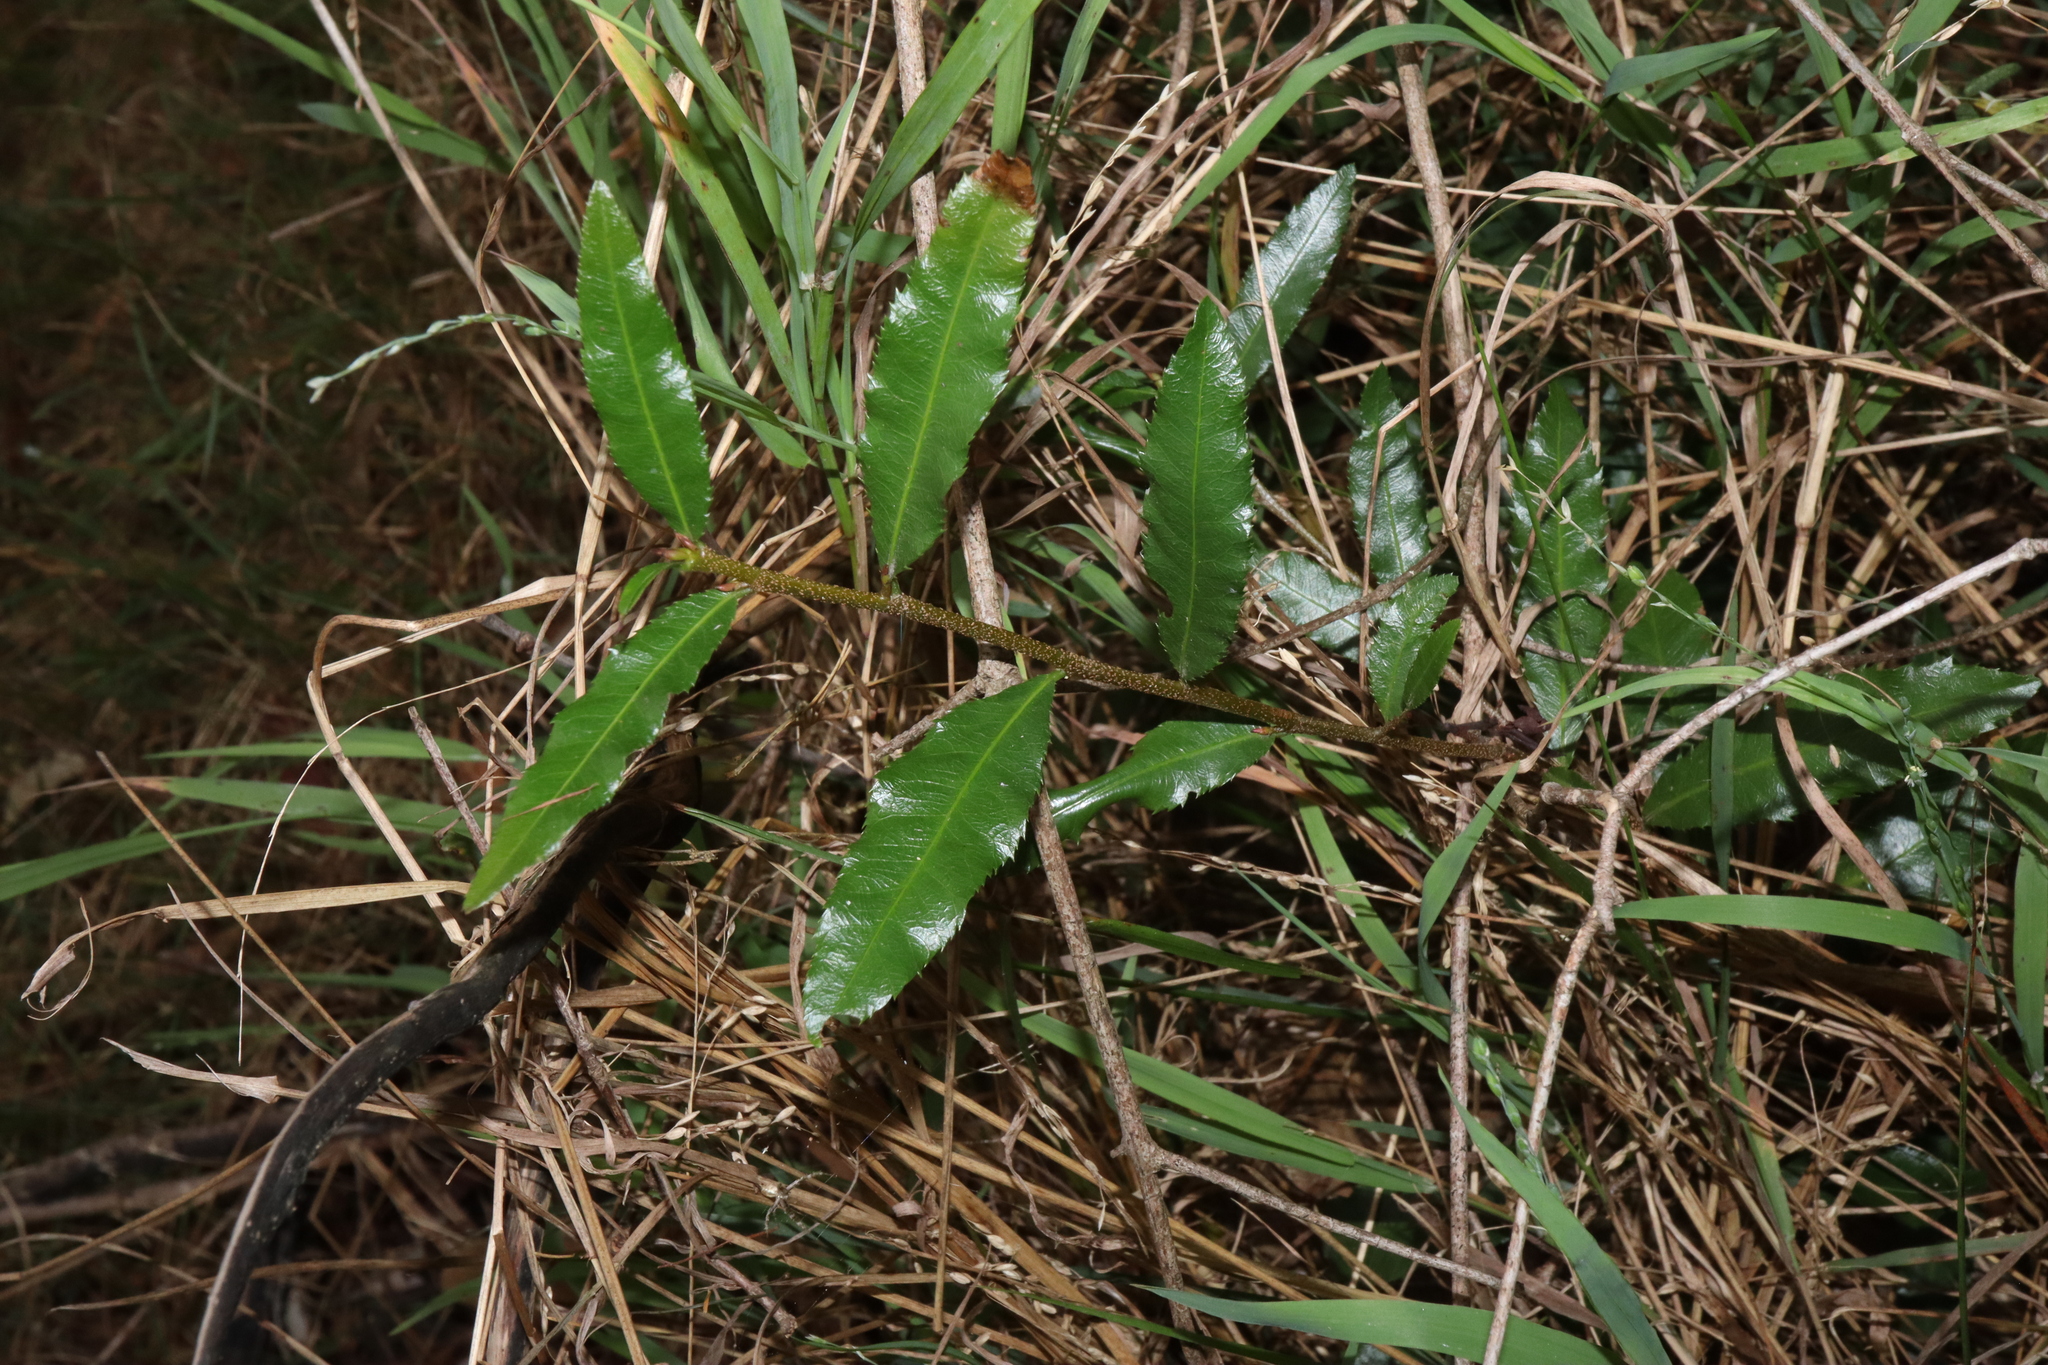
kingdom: Plantae
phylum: Tracheophyta
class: Magnoliopsida
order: Malpighiales
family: Ochnaceae
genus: Ochna
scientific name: Ochna serrulata
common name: Mickey mouse plant
